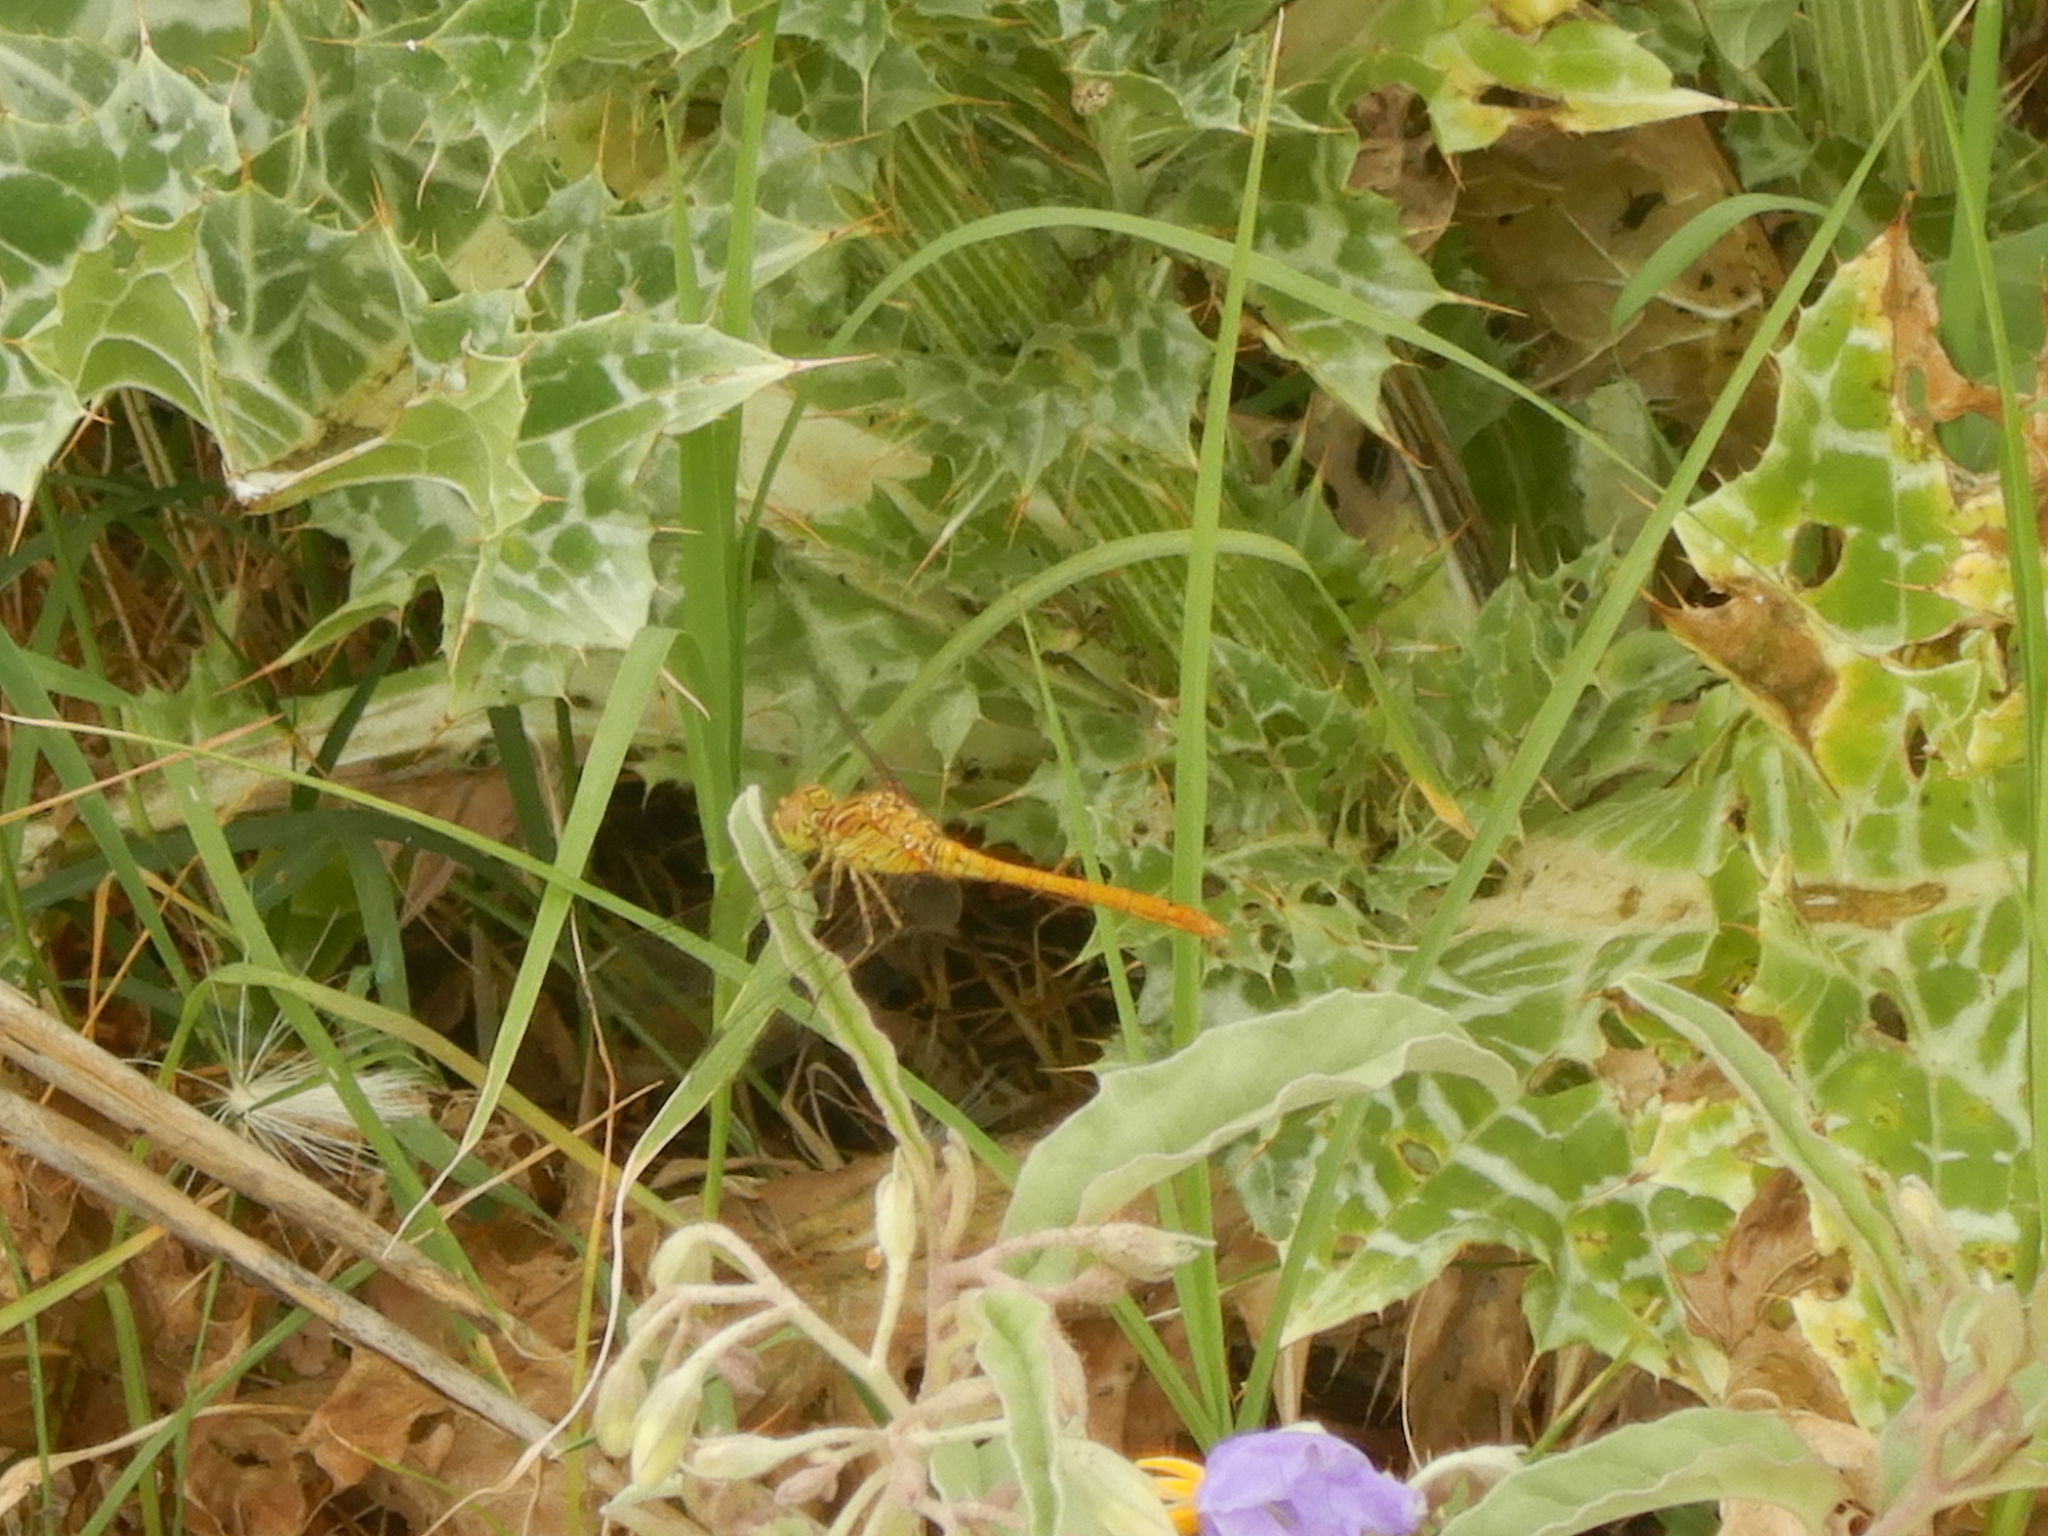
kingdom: Animalia
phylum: Arthropoda
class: Insecta
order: Odonata
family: Libellulidae
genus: Sympetrum
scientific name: Sympetrum meridionale
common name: Southern darter
